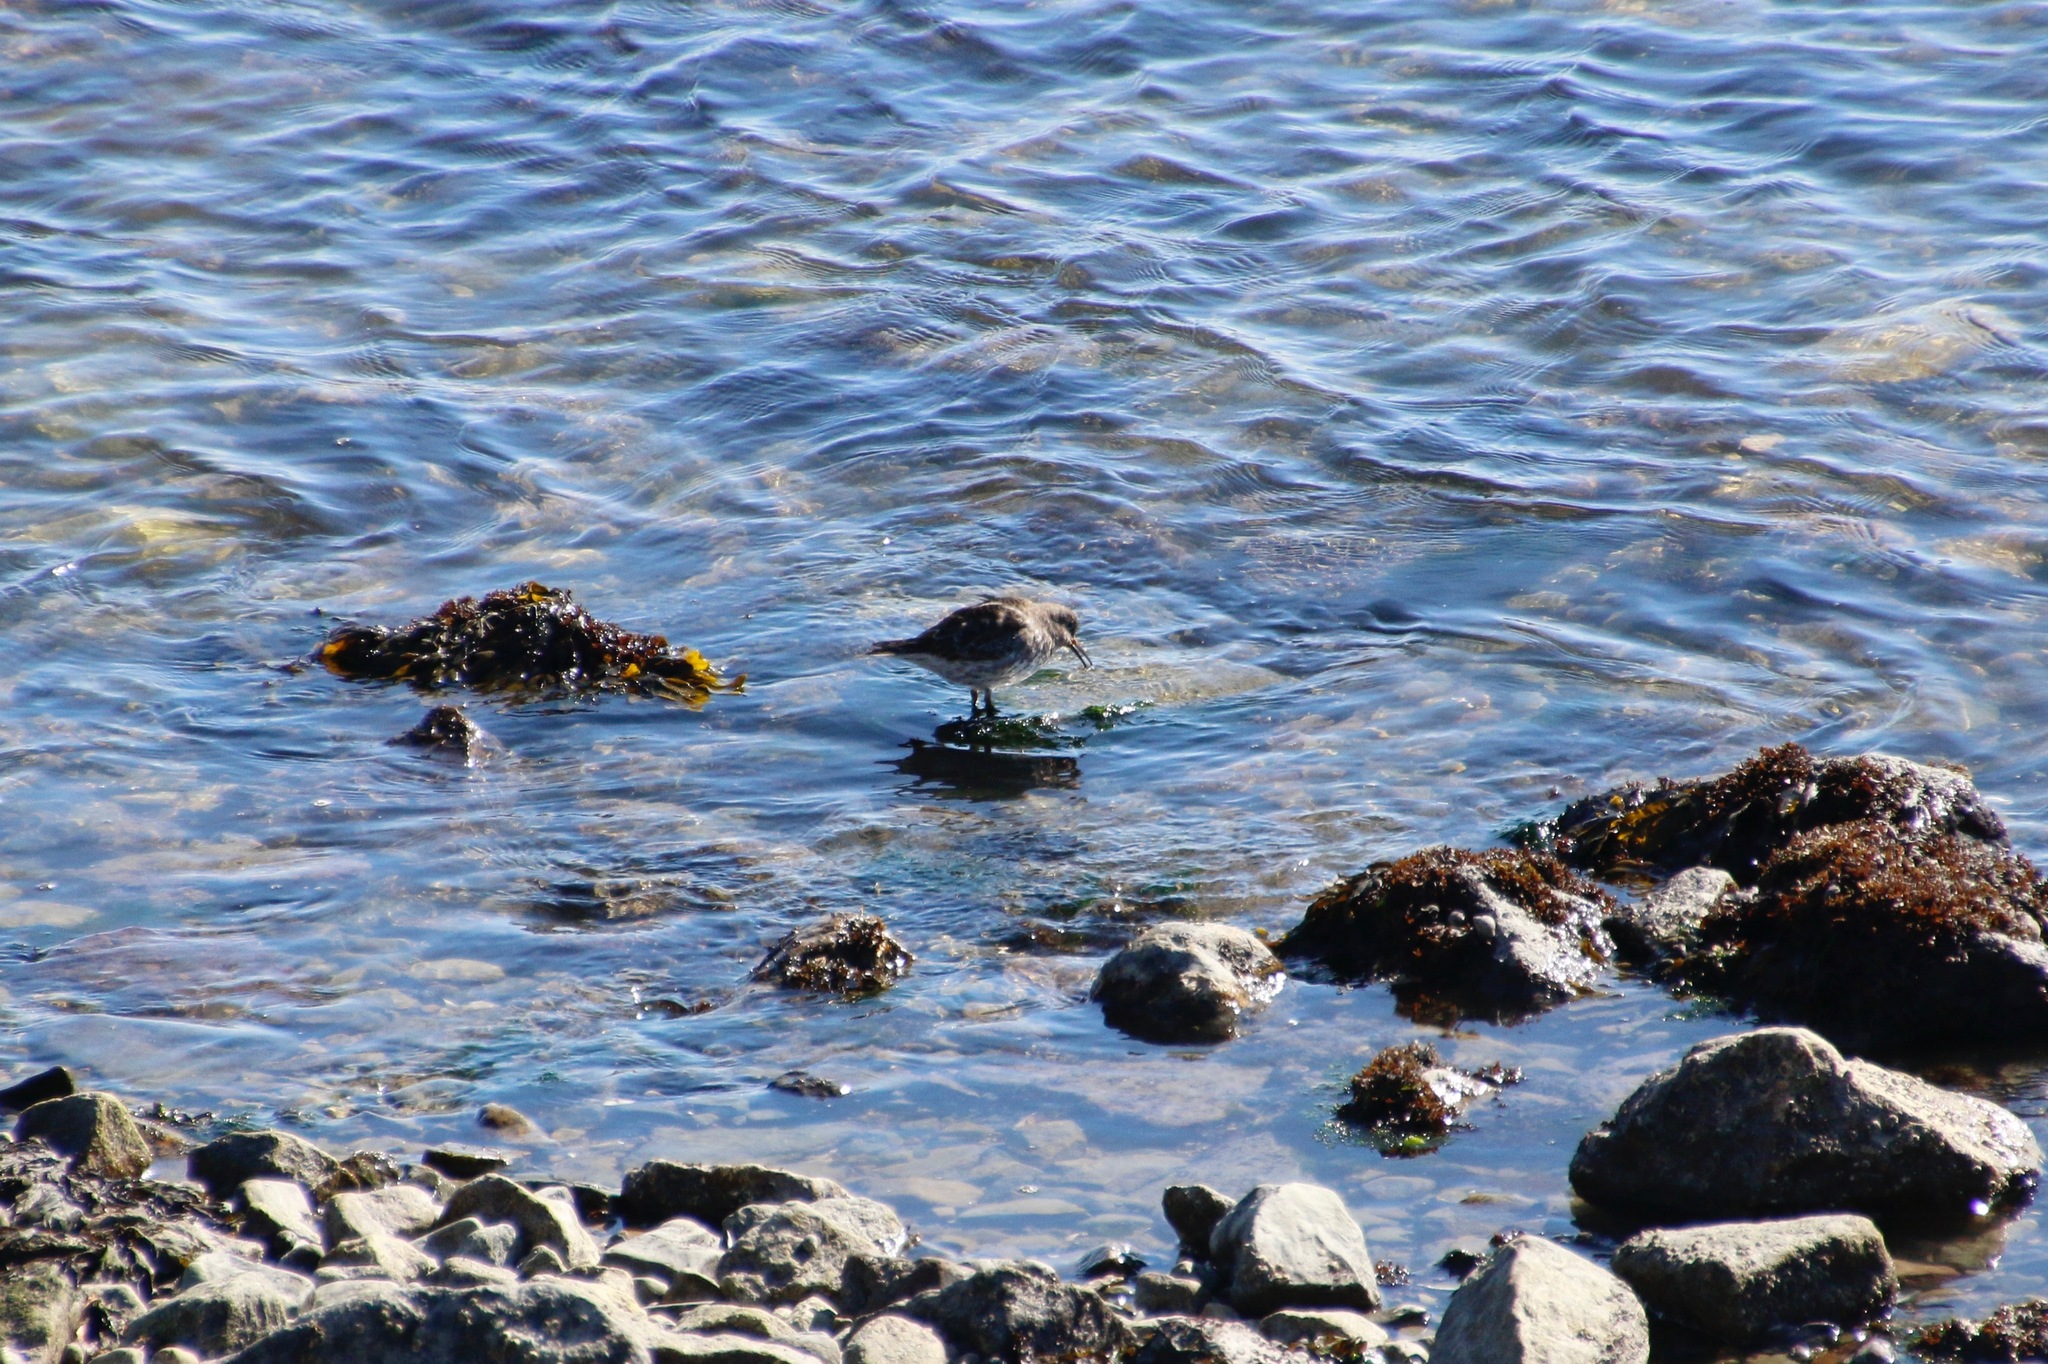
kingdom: Animalia
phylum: Chordata
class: Aves
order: Charadriiformes
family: Scolopacidae
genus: Calidris
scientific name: Calidris maritima
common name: Purple sandpiper
